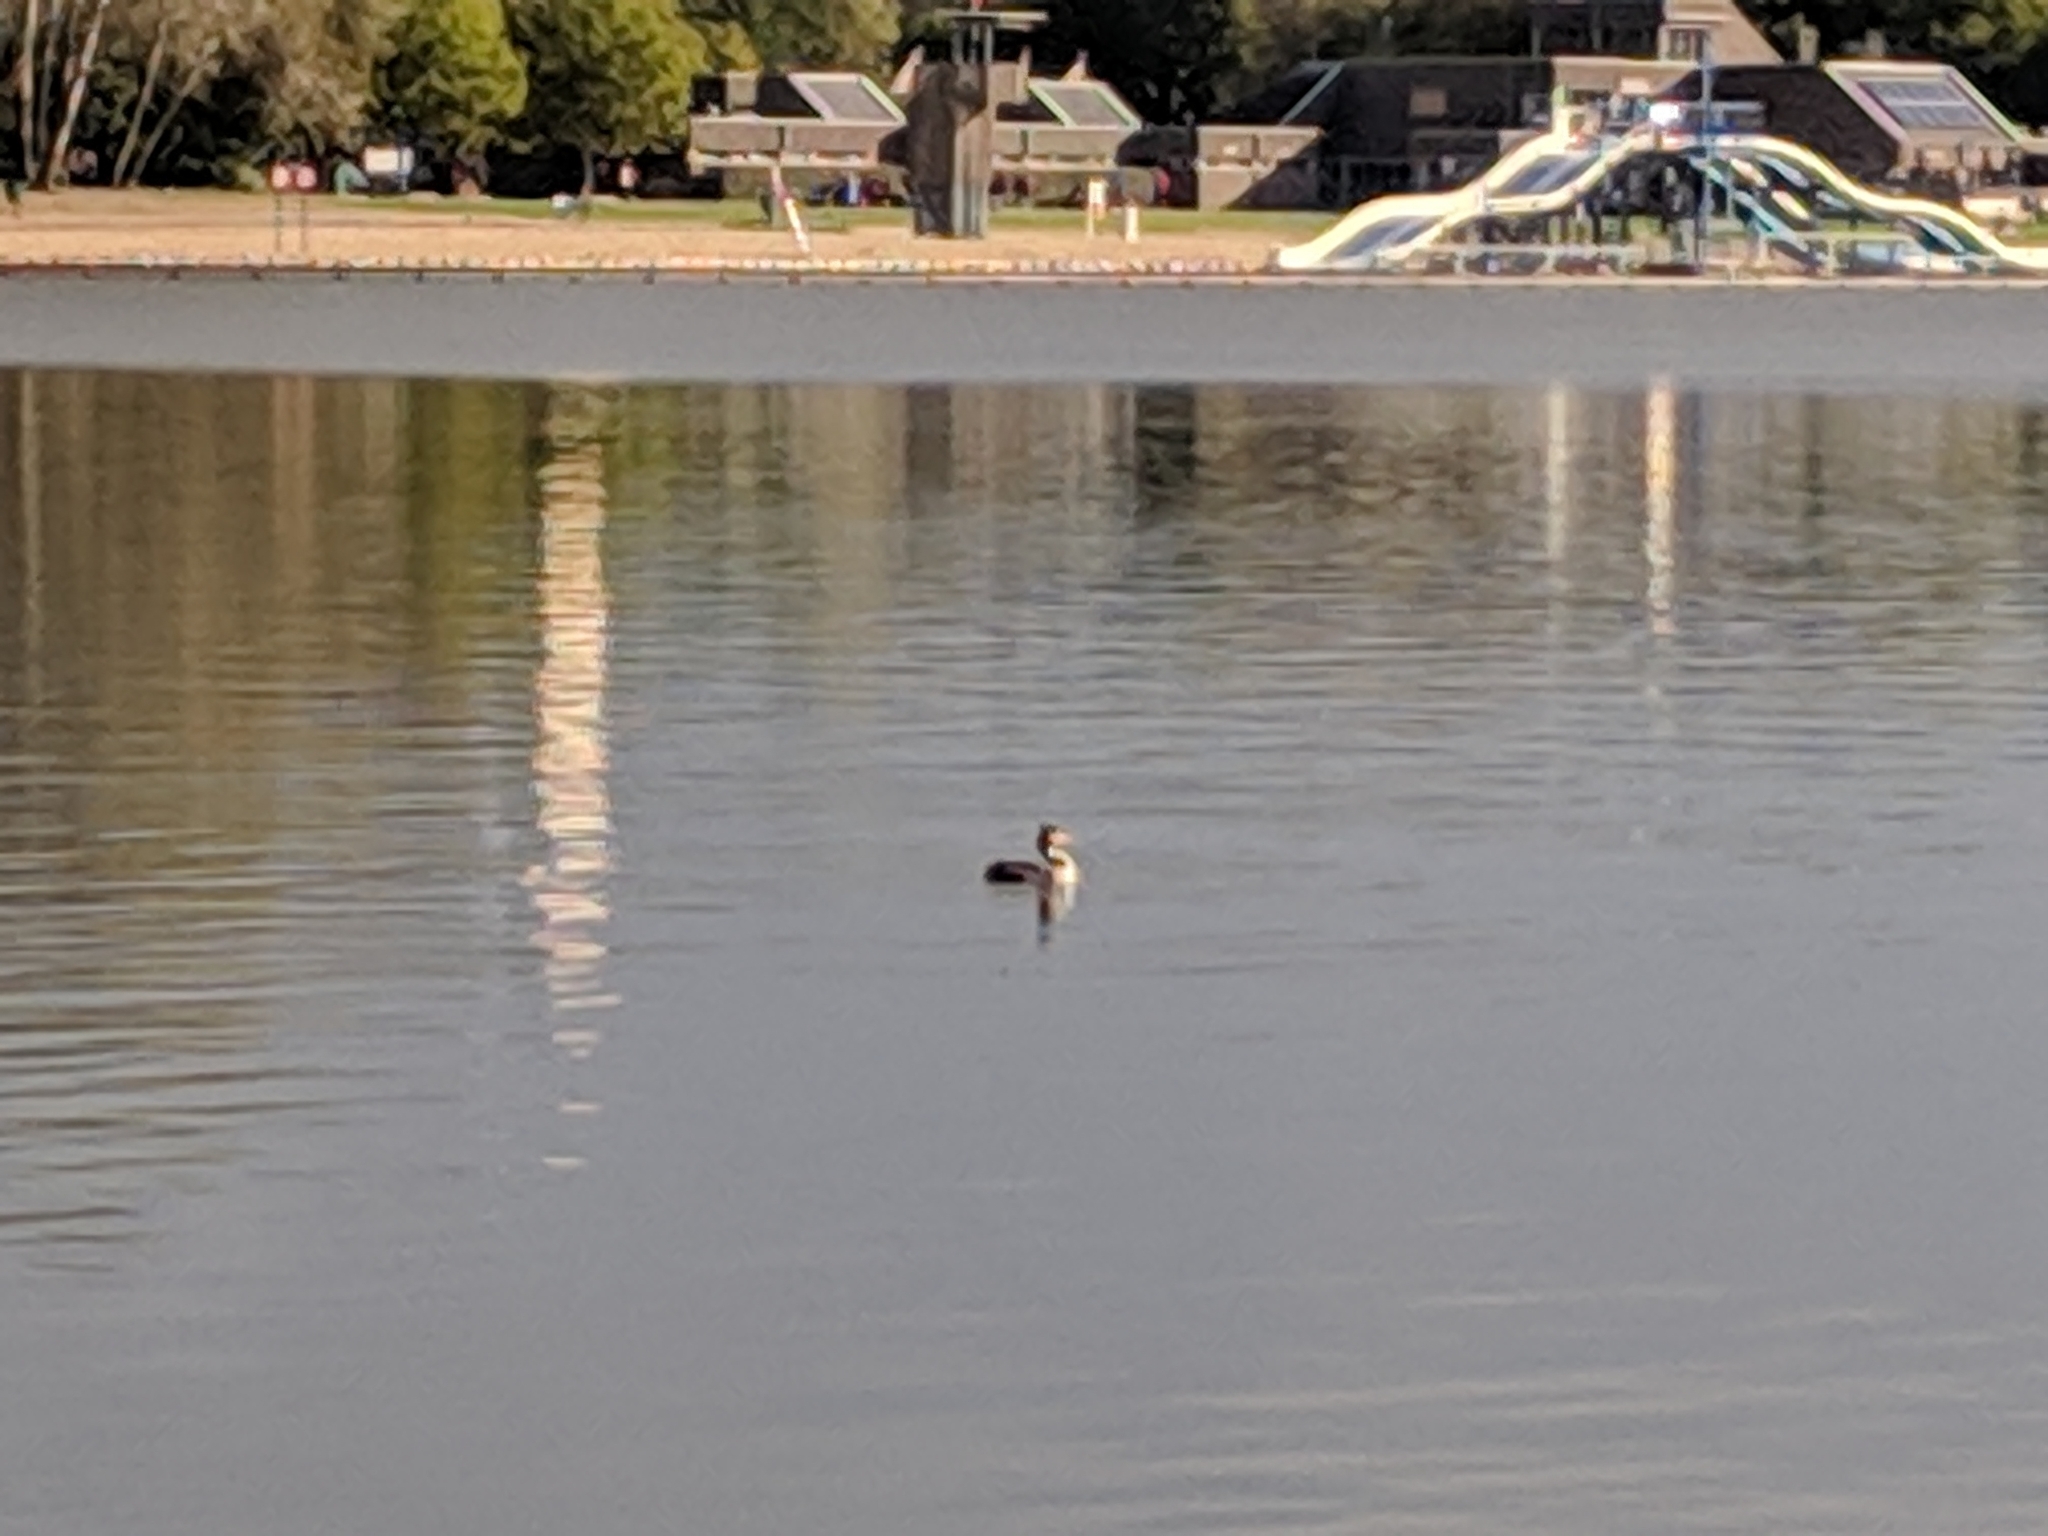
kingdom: Animalia
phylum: Chordata
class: Aves
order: Podicipediformes
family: Podicipedidae
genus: Podiceps
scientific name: Podiceps cristatus
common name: Great crested grebe
